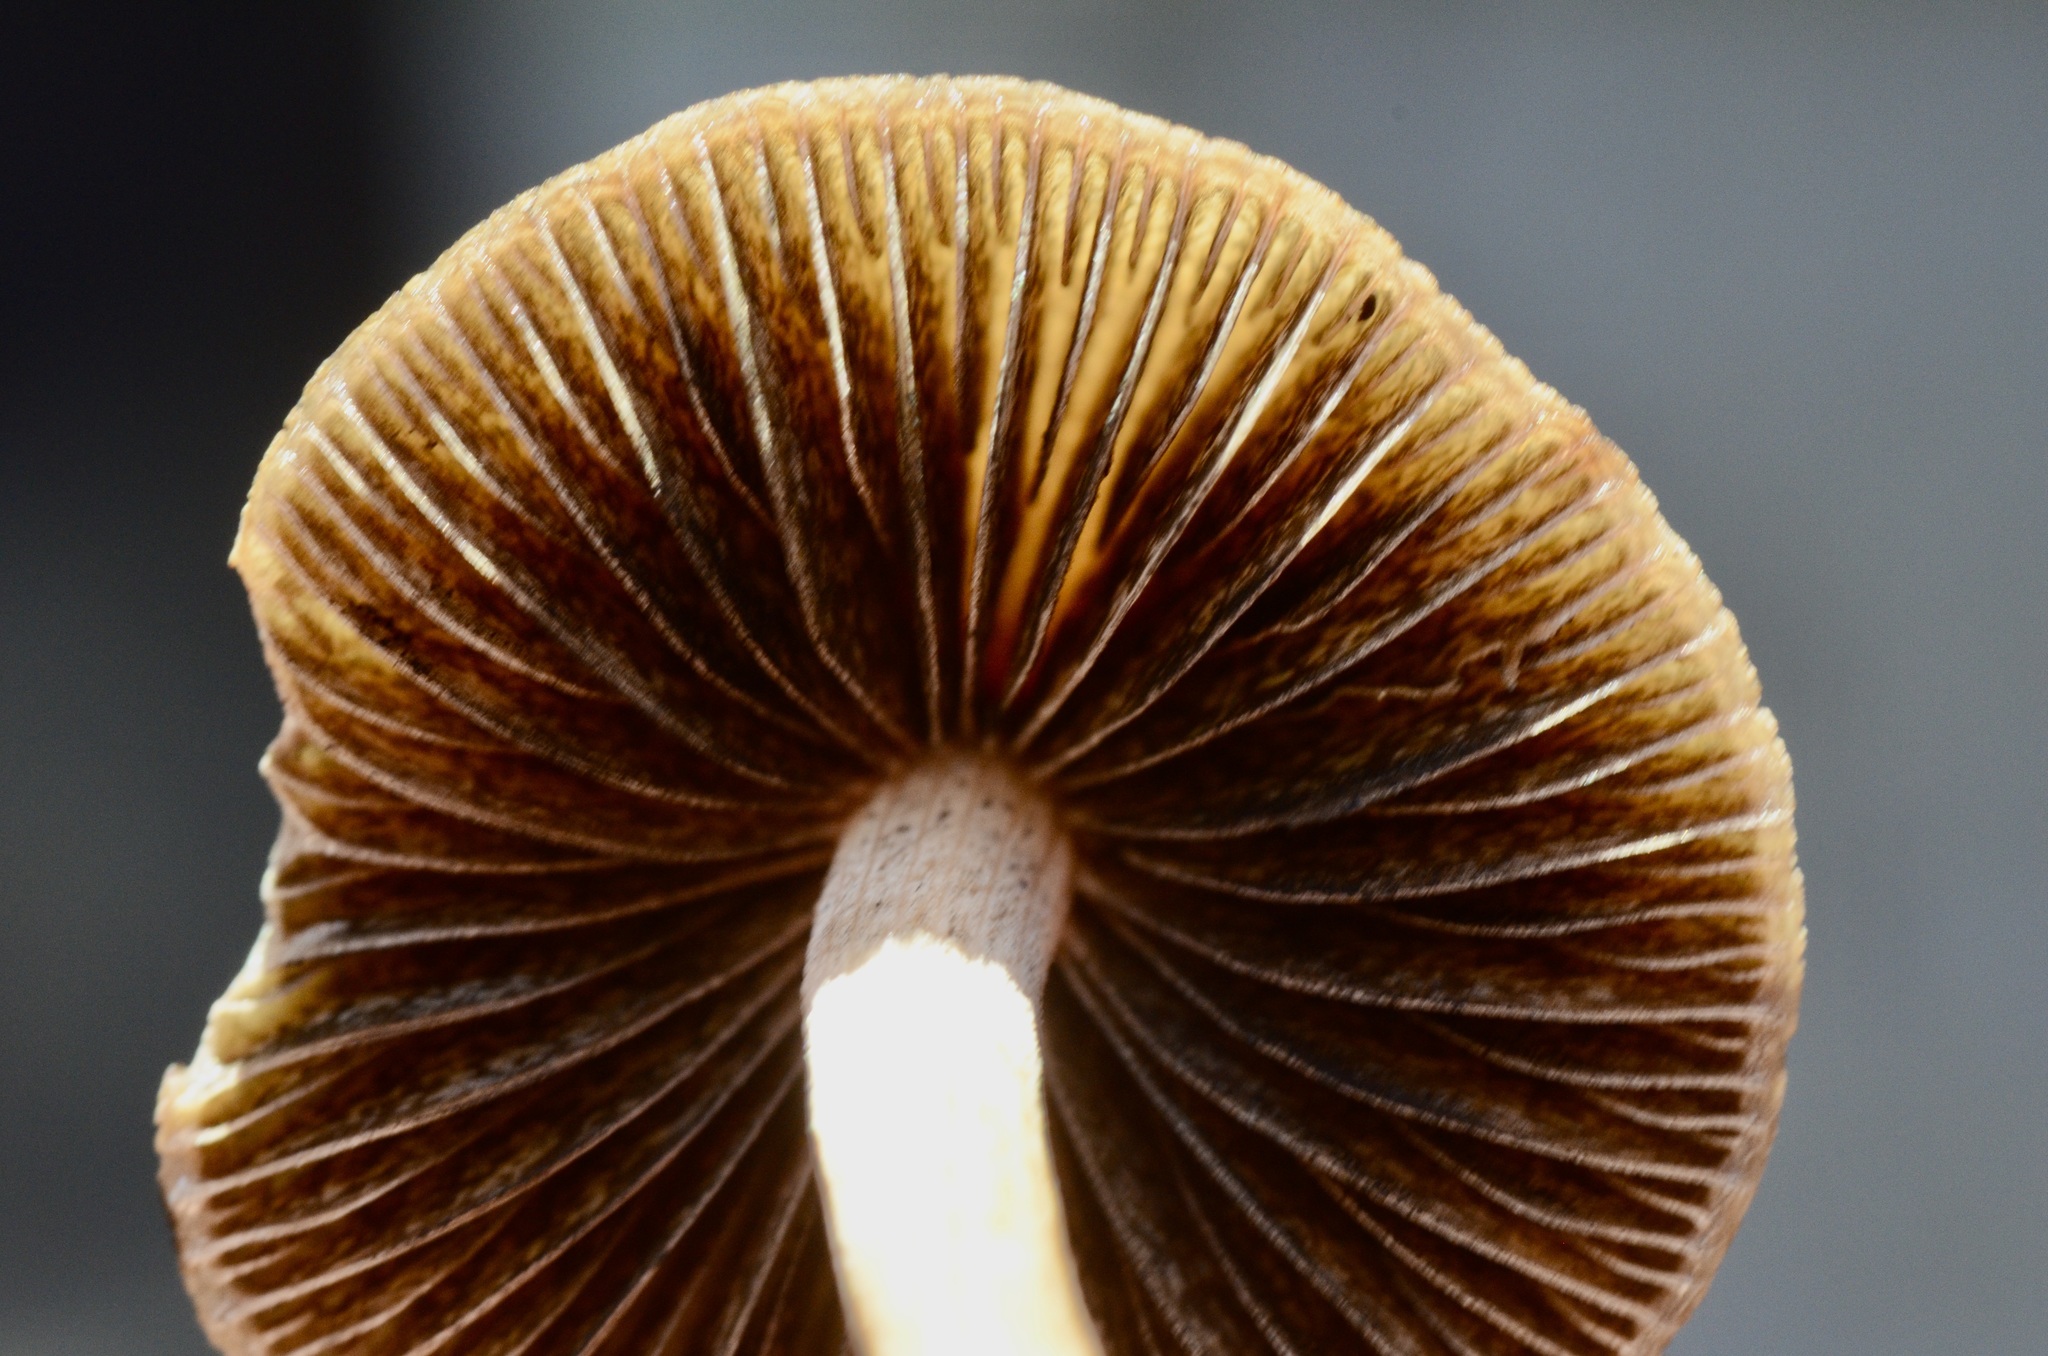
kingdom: Fungi
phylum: Basidiomycota
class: Agaricomycetes
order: Agaricales
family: Bolbitiaceae
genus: Panaeolina
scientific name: Panaeolina foenisecii
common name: Brown hay cap
